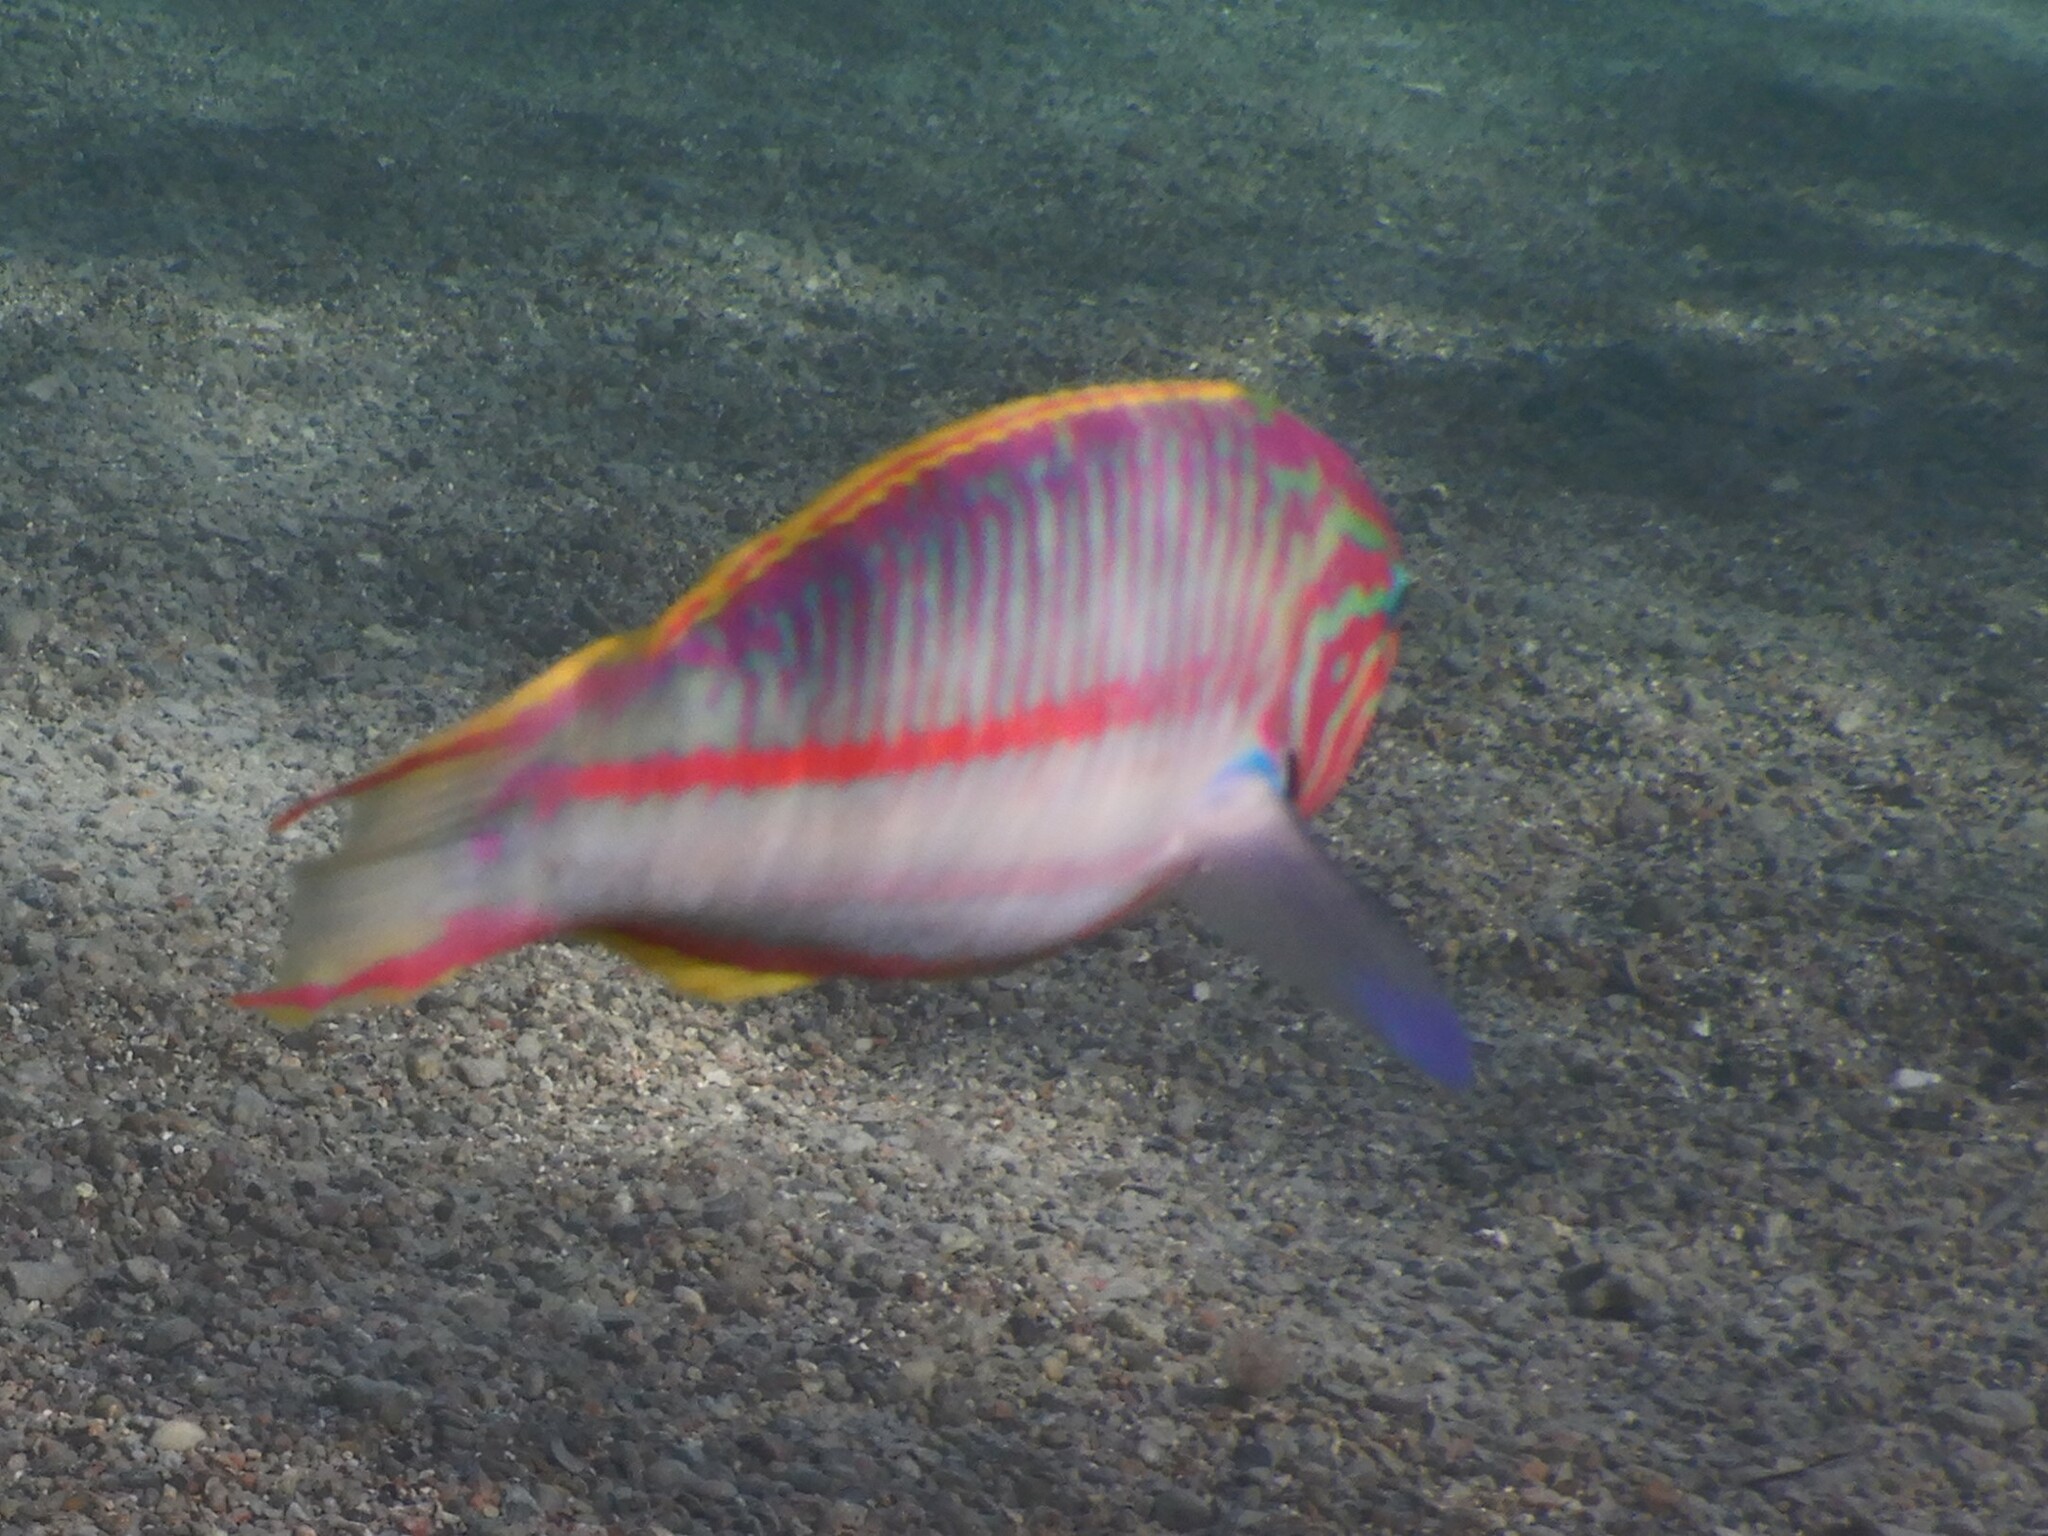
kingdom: Animalia
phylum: Chordata
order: Perciformes
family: Labridae
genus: Thalassoma
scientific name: Thalassoma rueppellii
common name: Klunzinger's wrasse
